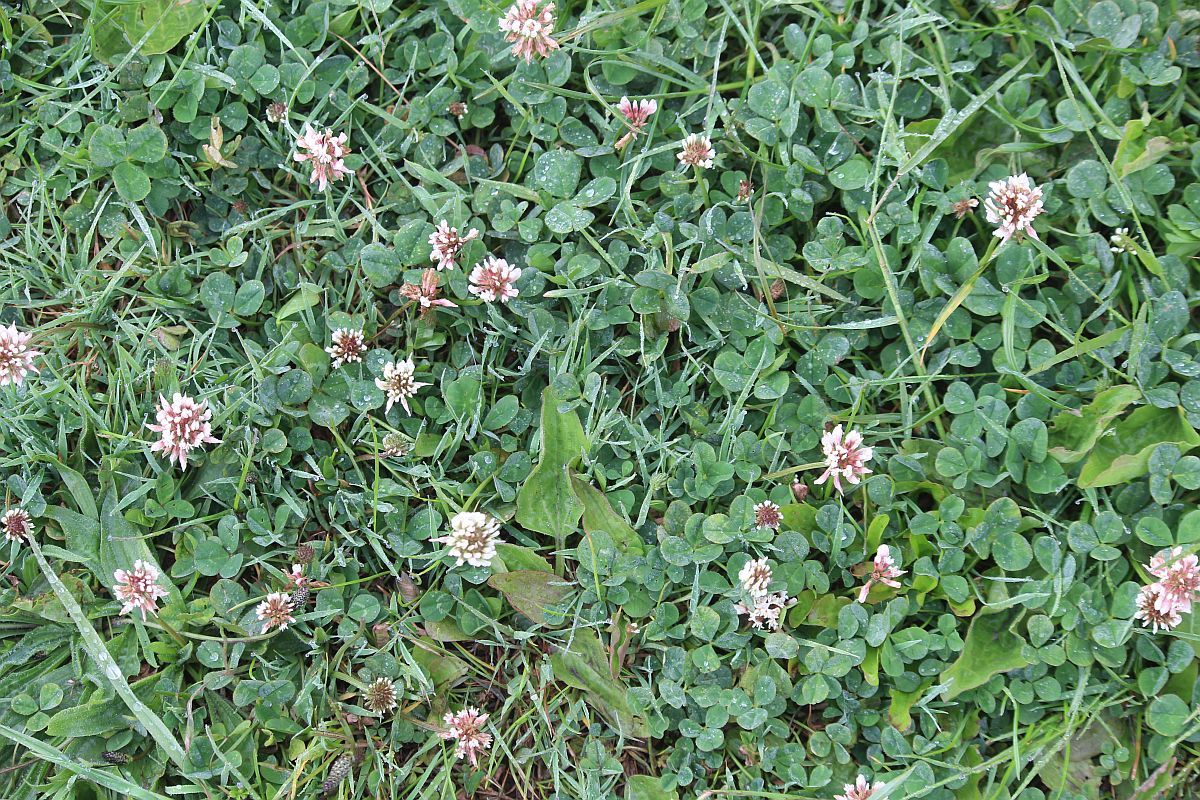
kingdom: Plantae
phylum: Tracheophyta
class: Magnoliopsida
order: Fabales
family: Fabaceae
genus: Trifolium
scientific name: Trifolium repens
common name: White clover
